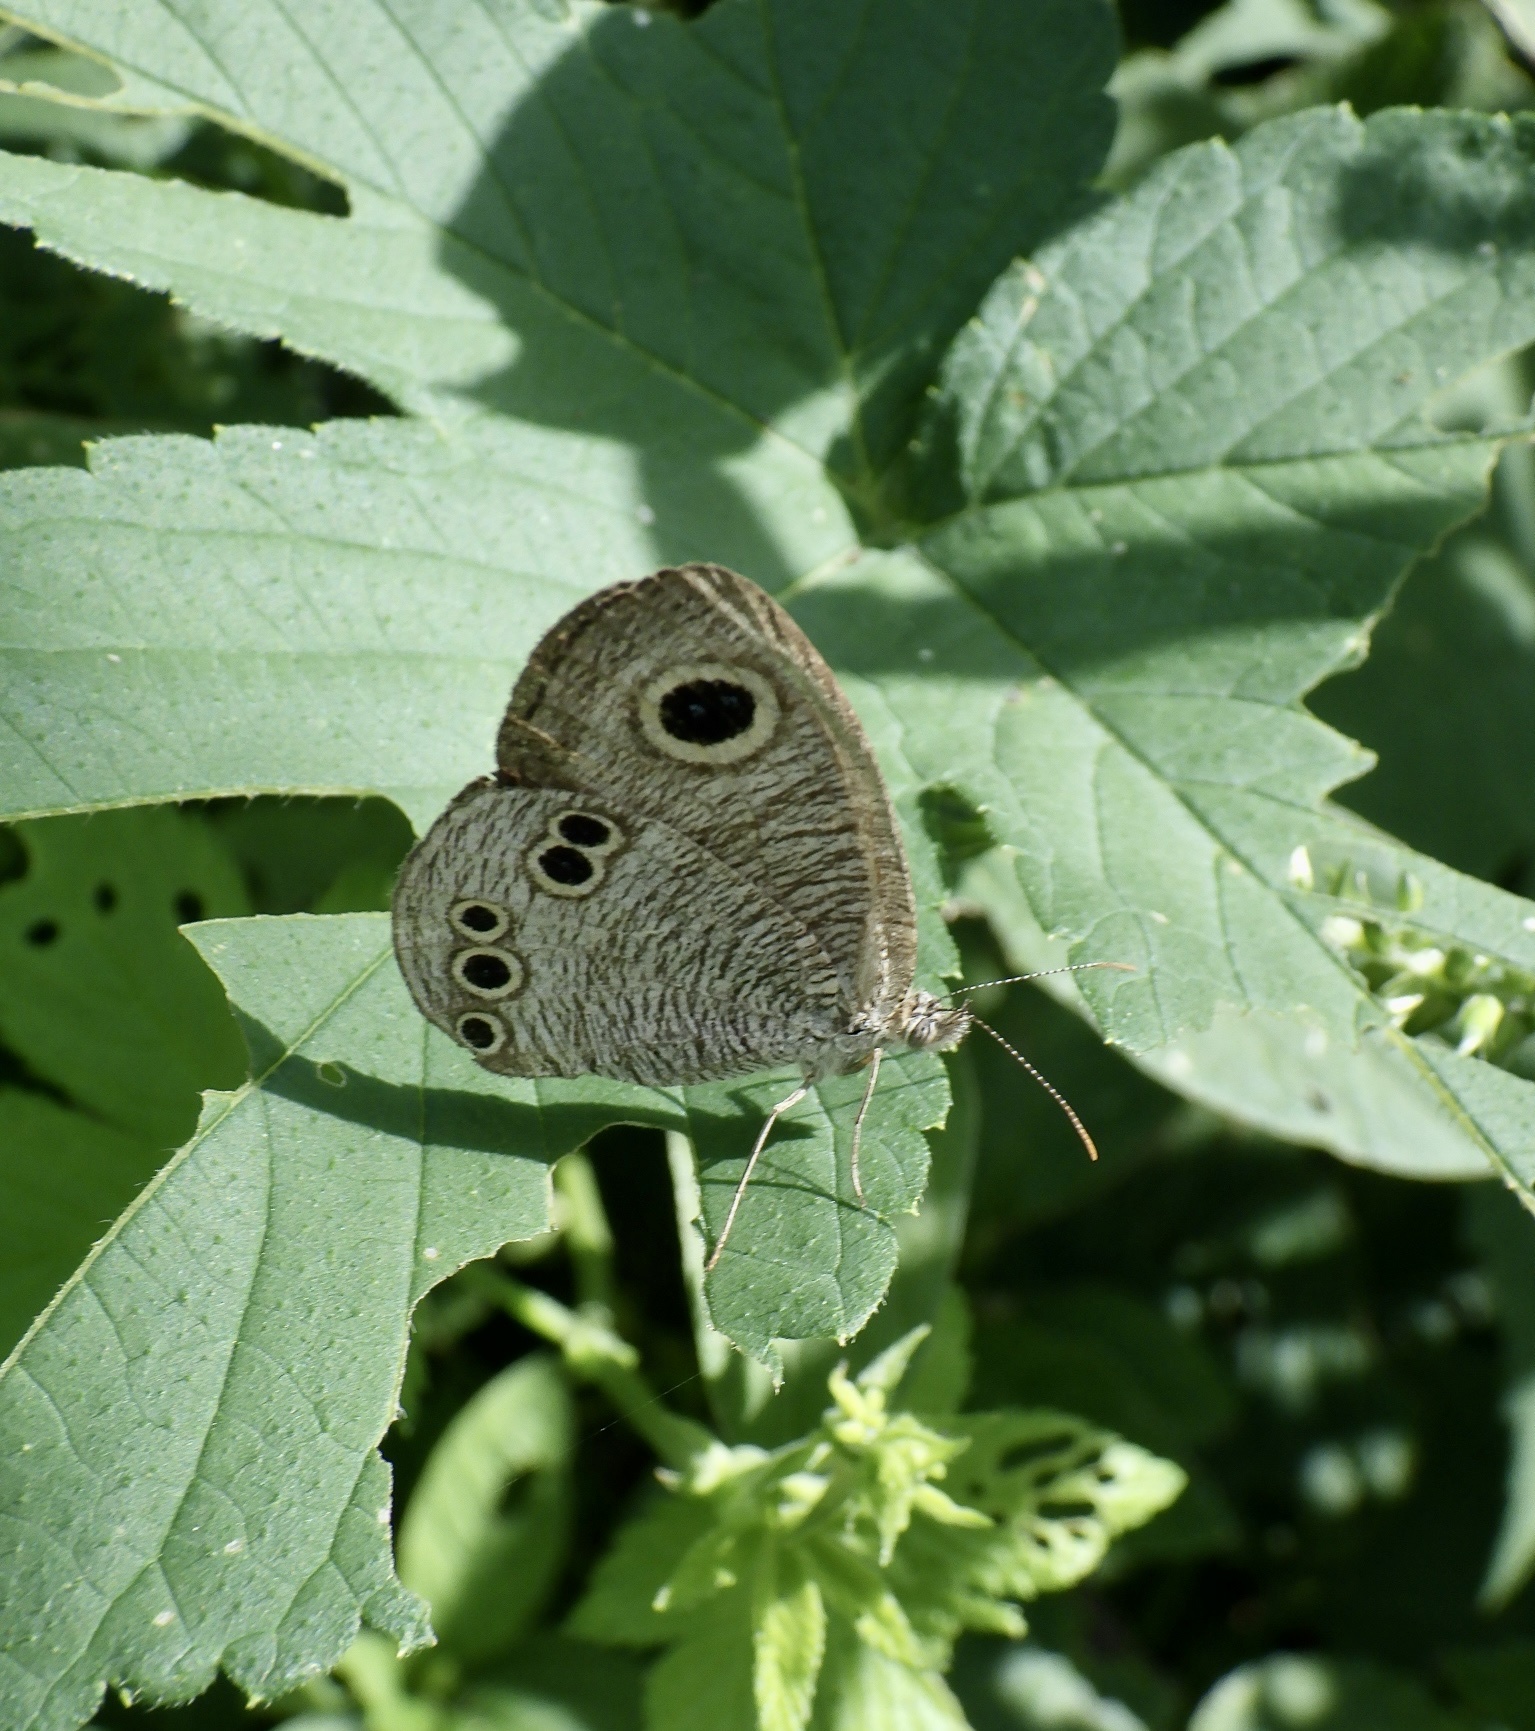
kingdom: Animalia
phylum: Arthropoda
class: Insecta
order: Lepidoptera
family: Nymphalidae
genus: Ypthima
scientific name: Ypthima argus
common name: Common fivering
